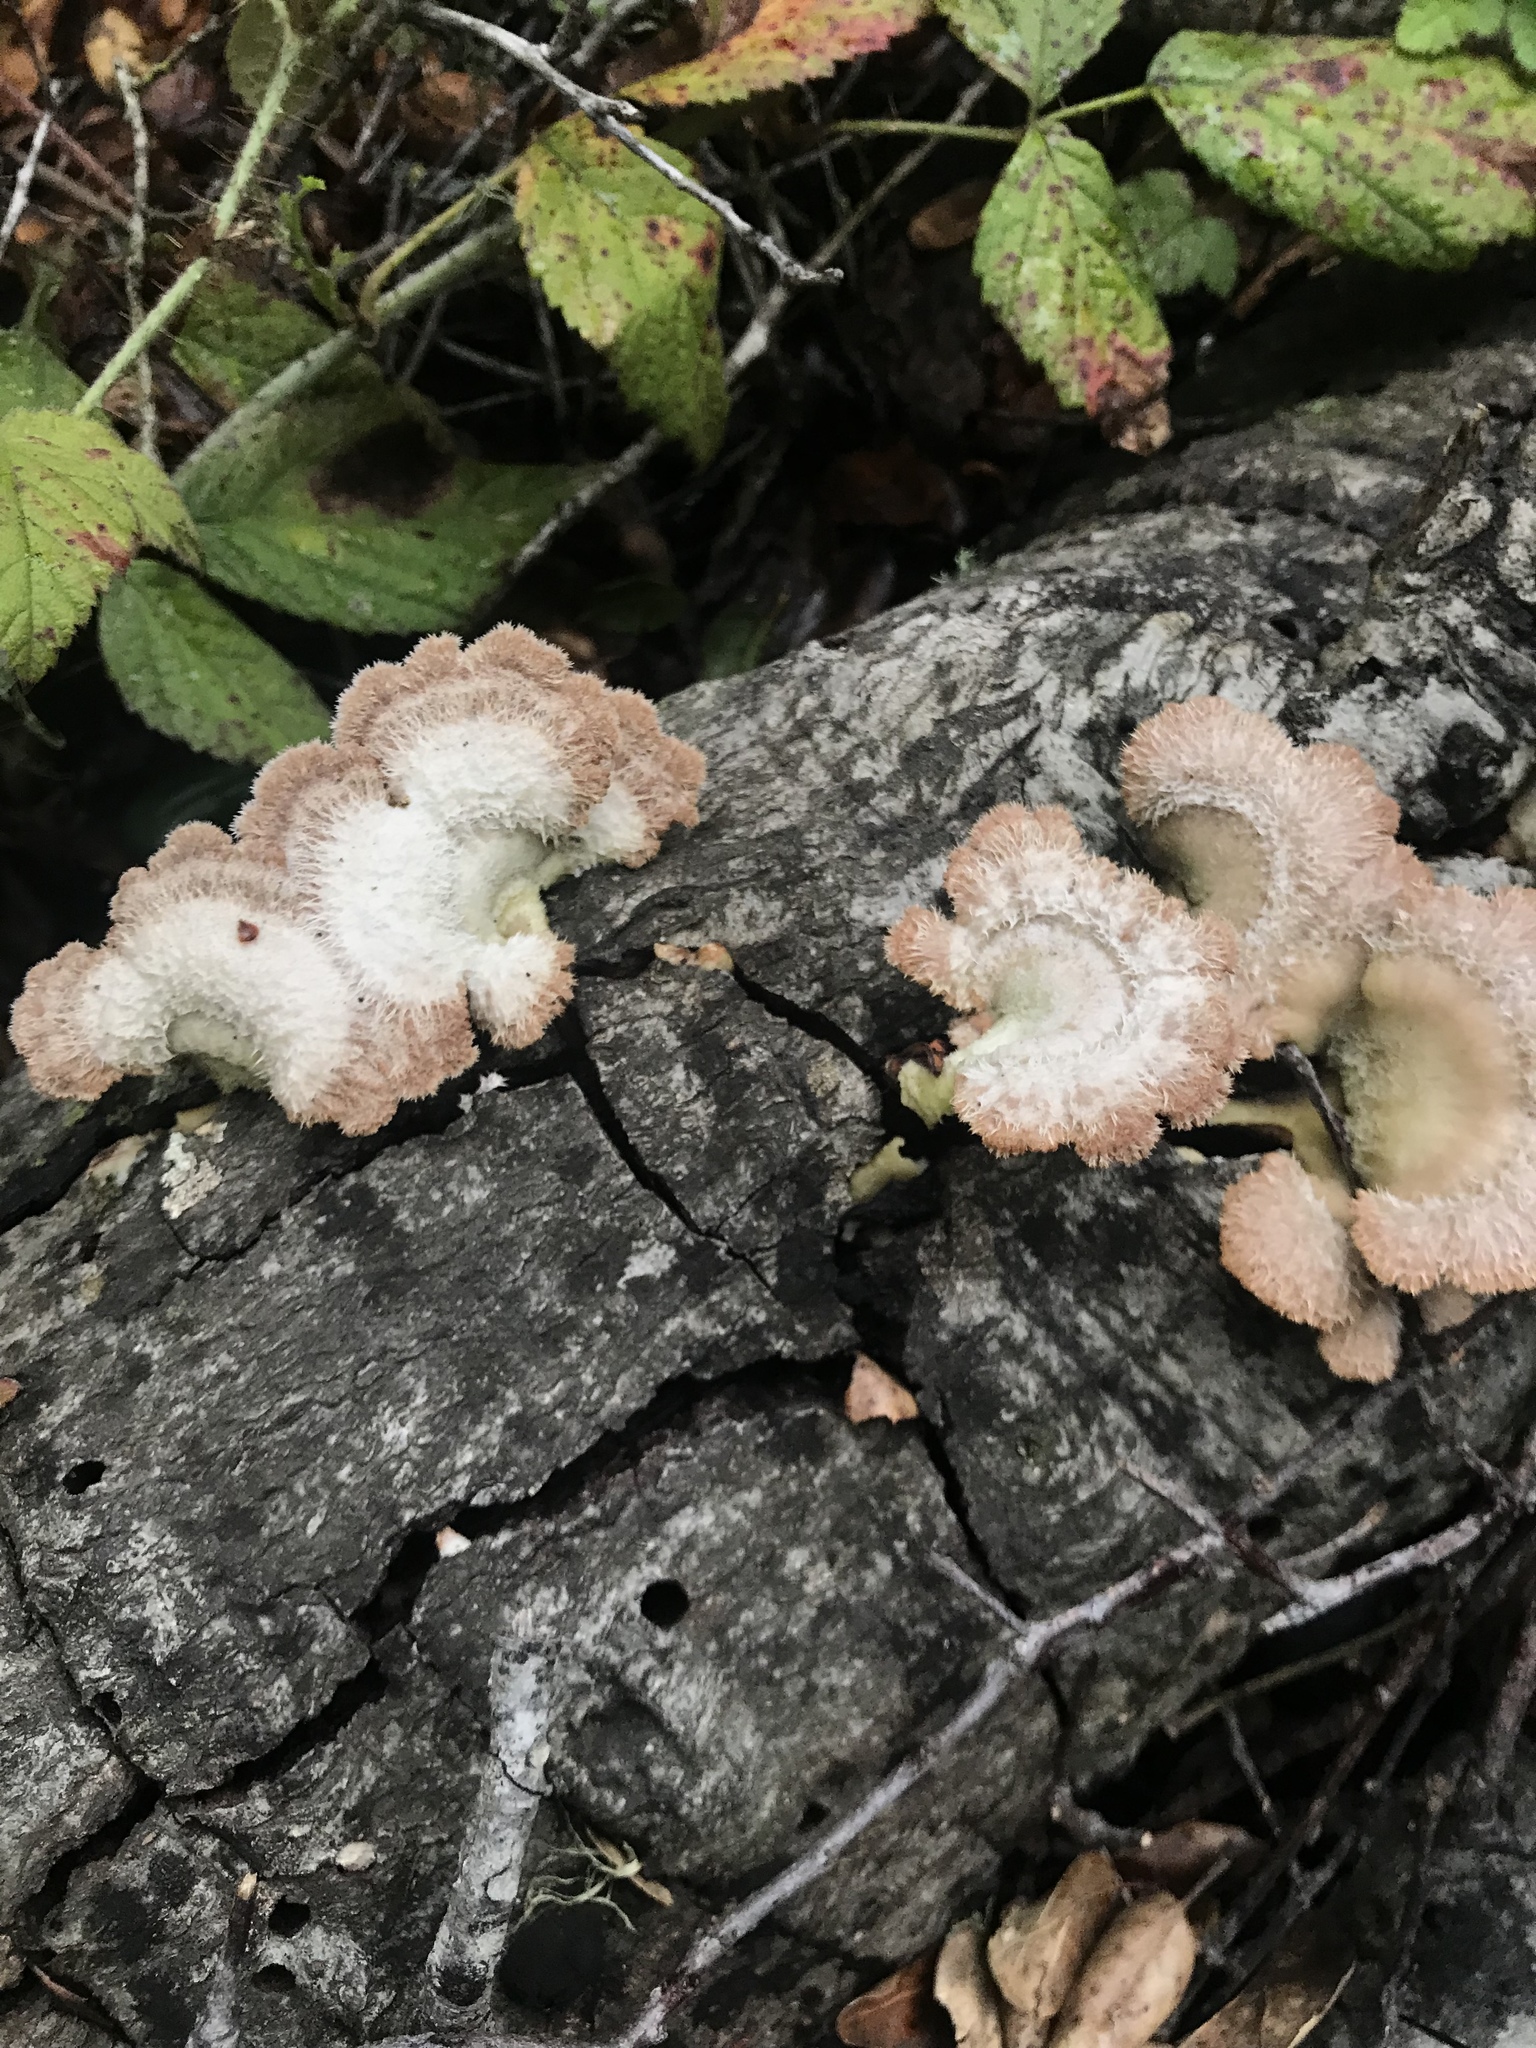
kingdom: Fungi
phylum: Basidiomycota
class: Agaricomycetes
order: Agaricales
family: Schizophyllaceae
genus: Schizophyllum
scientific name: Schizophyllum commune
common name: Common porecrust
